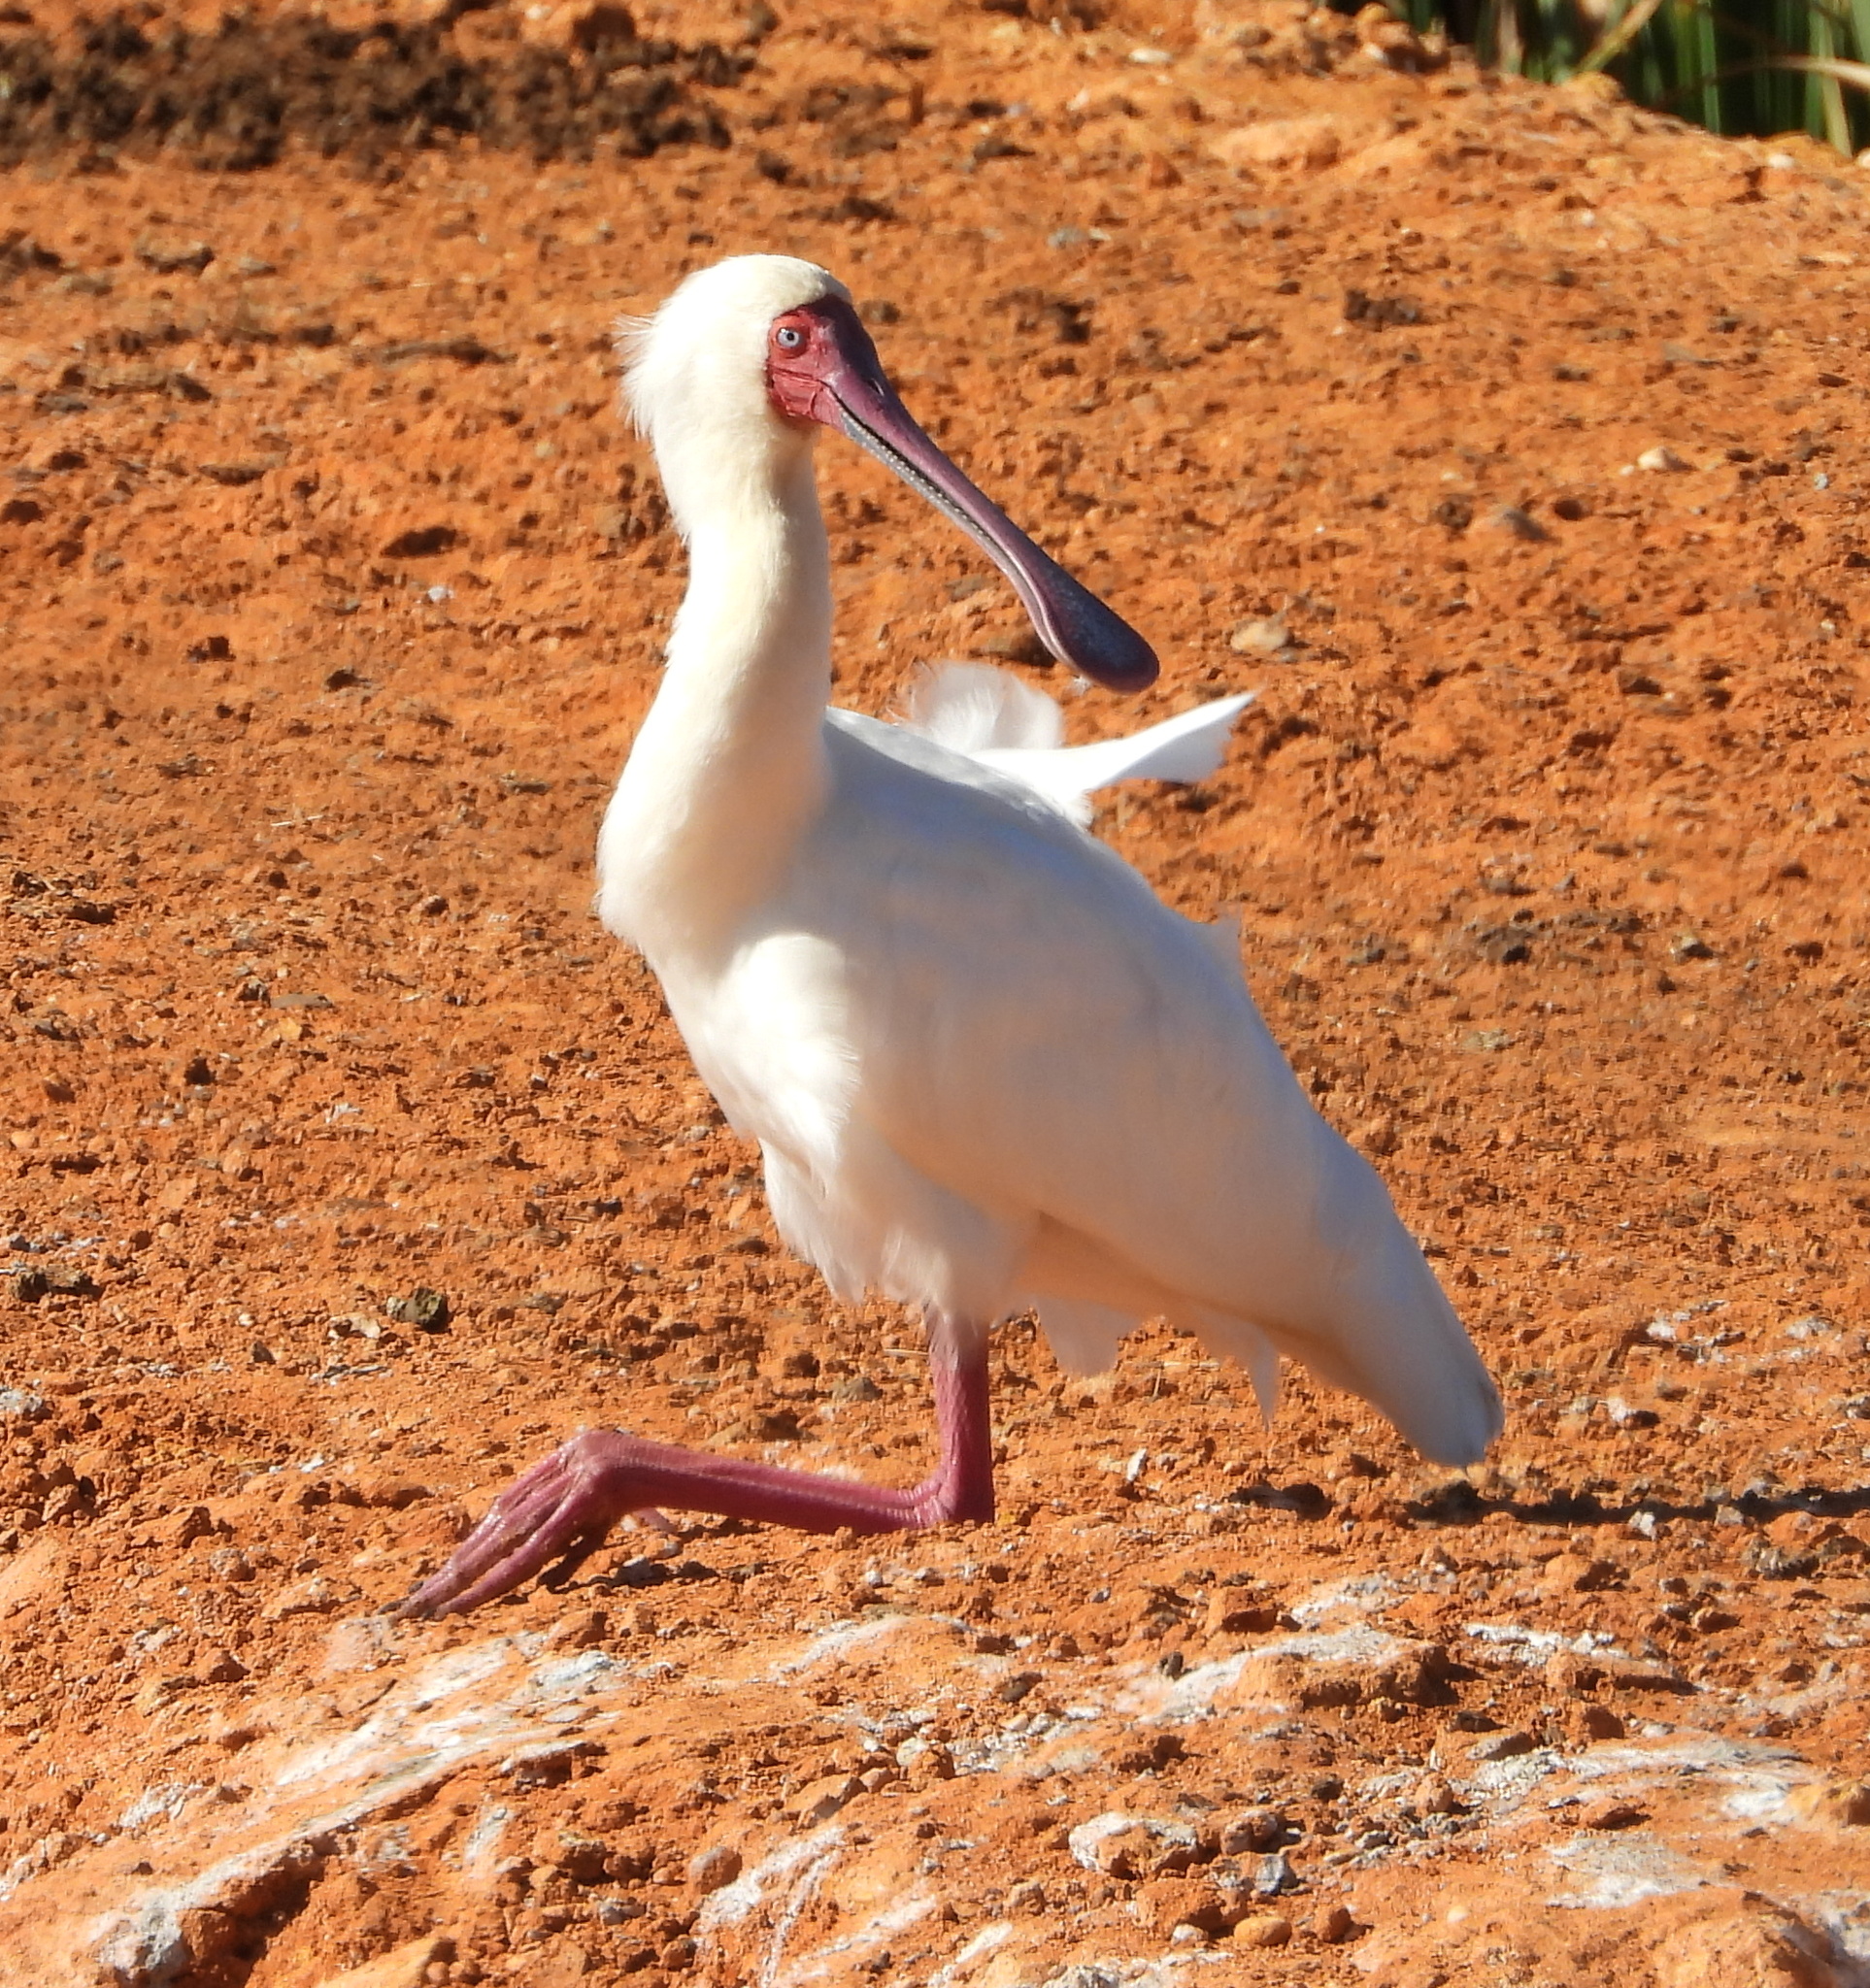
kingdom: Animalia
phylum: Chordata
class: Aves
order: Pelecaniformes
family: Threskiornithidae
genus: Platalea
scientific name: Platalea alba
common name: African spoonbill
